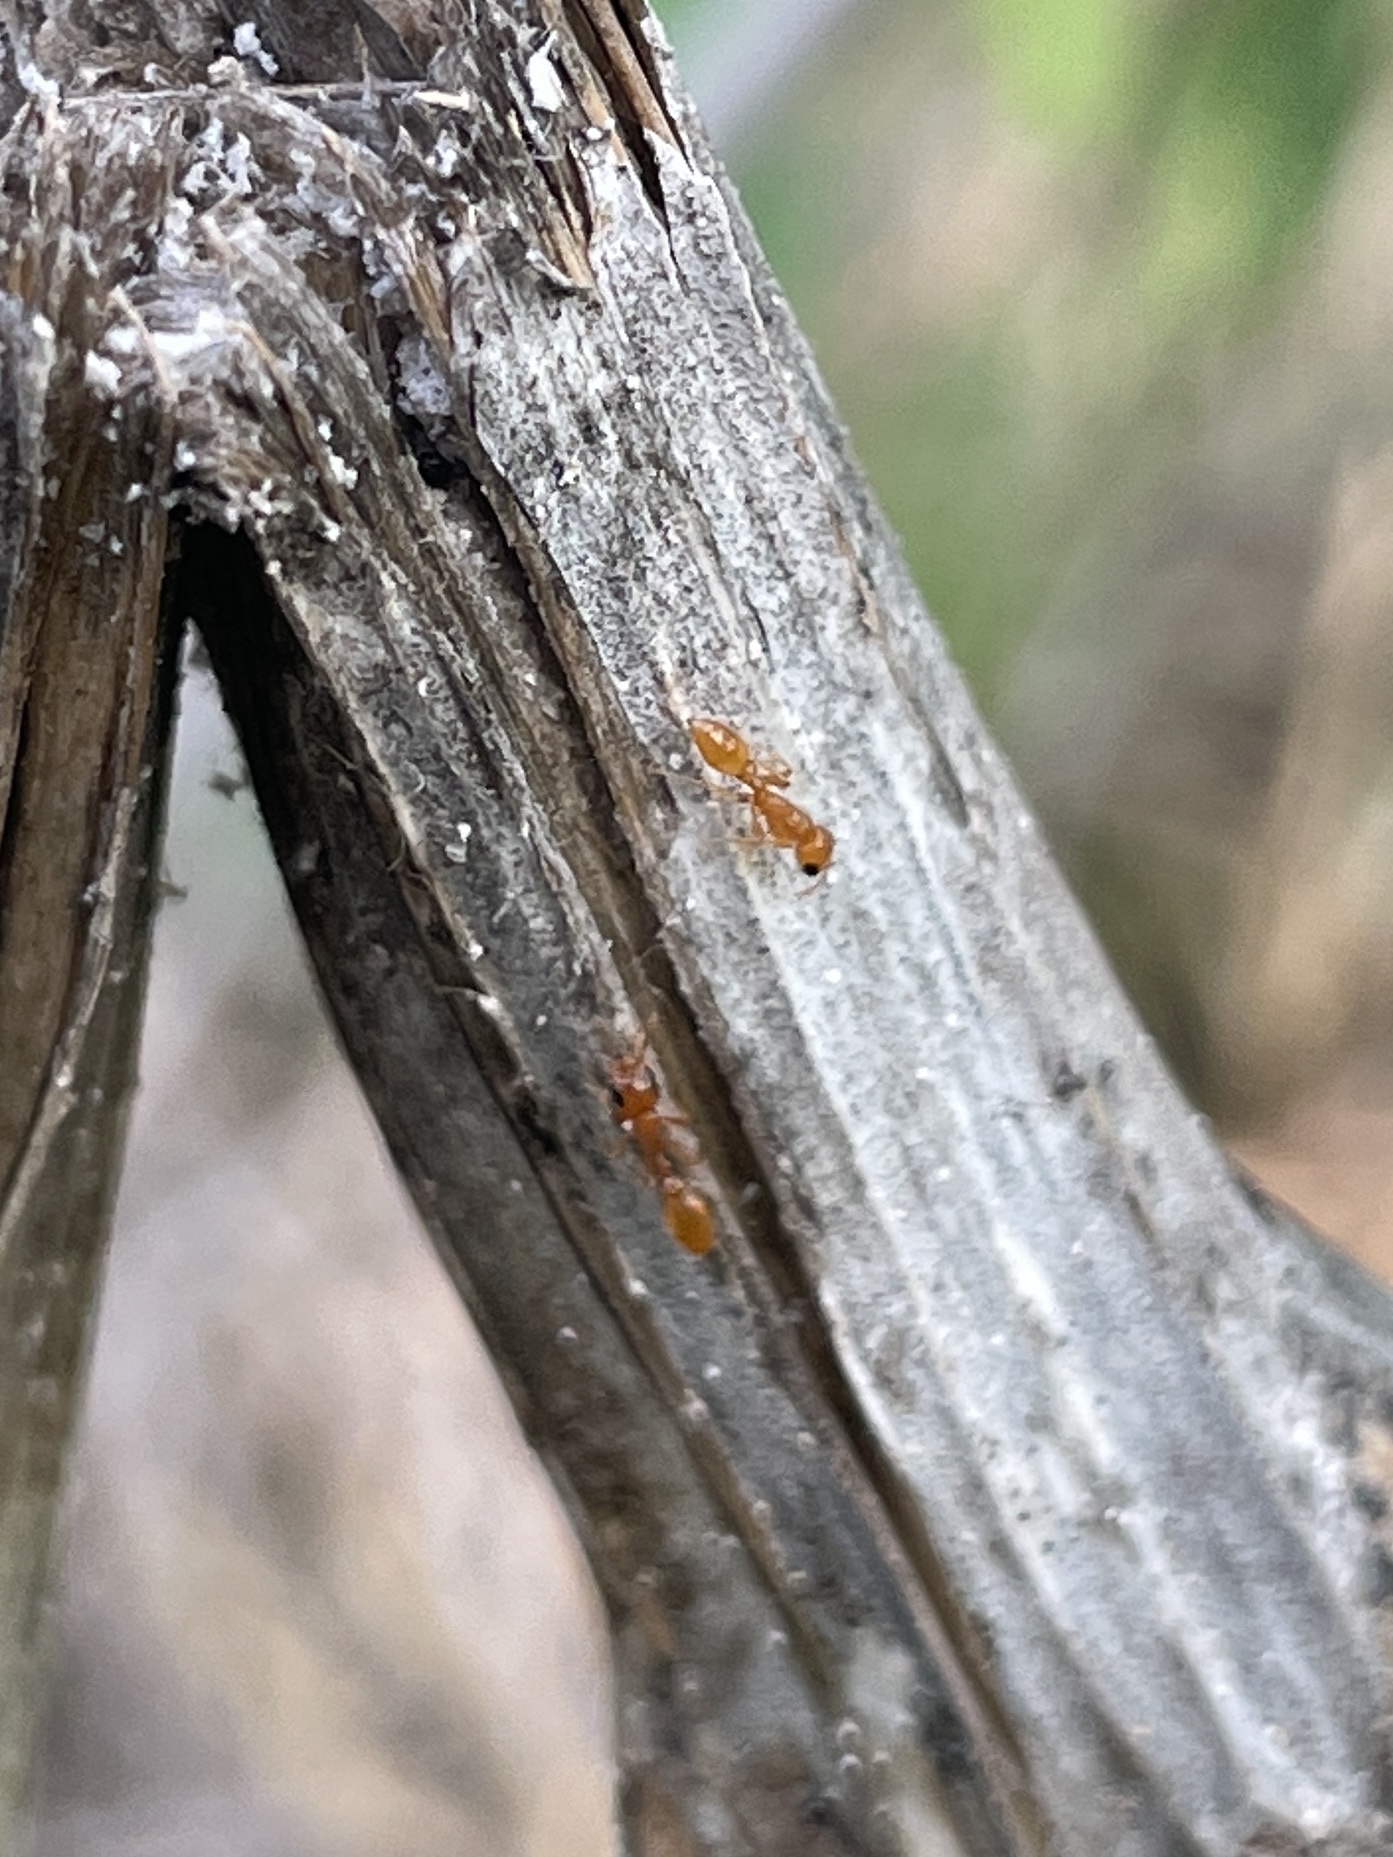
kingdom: Animalia
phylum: Arthropoda
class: Insecta
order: Hymenoptera
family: Formicidae
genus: Pseudomyrmex
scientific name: Pseudomyrmex pallidus
